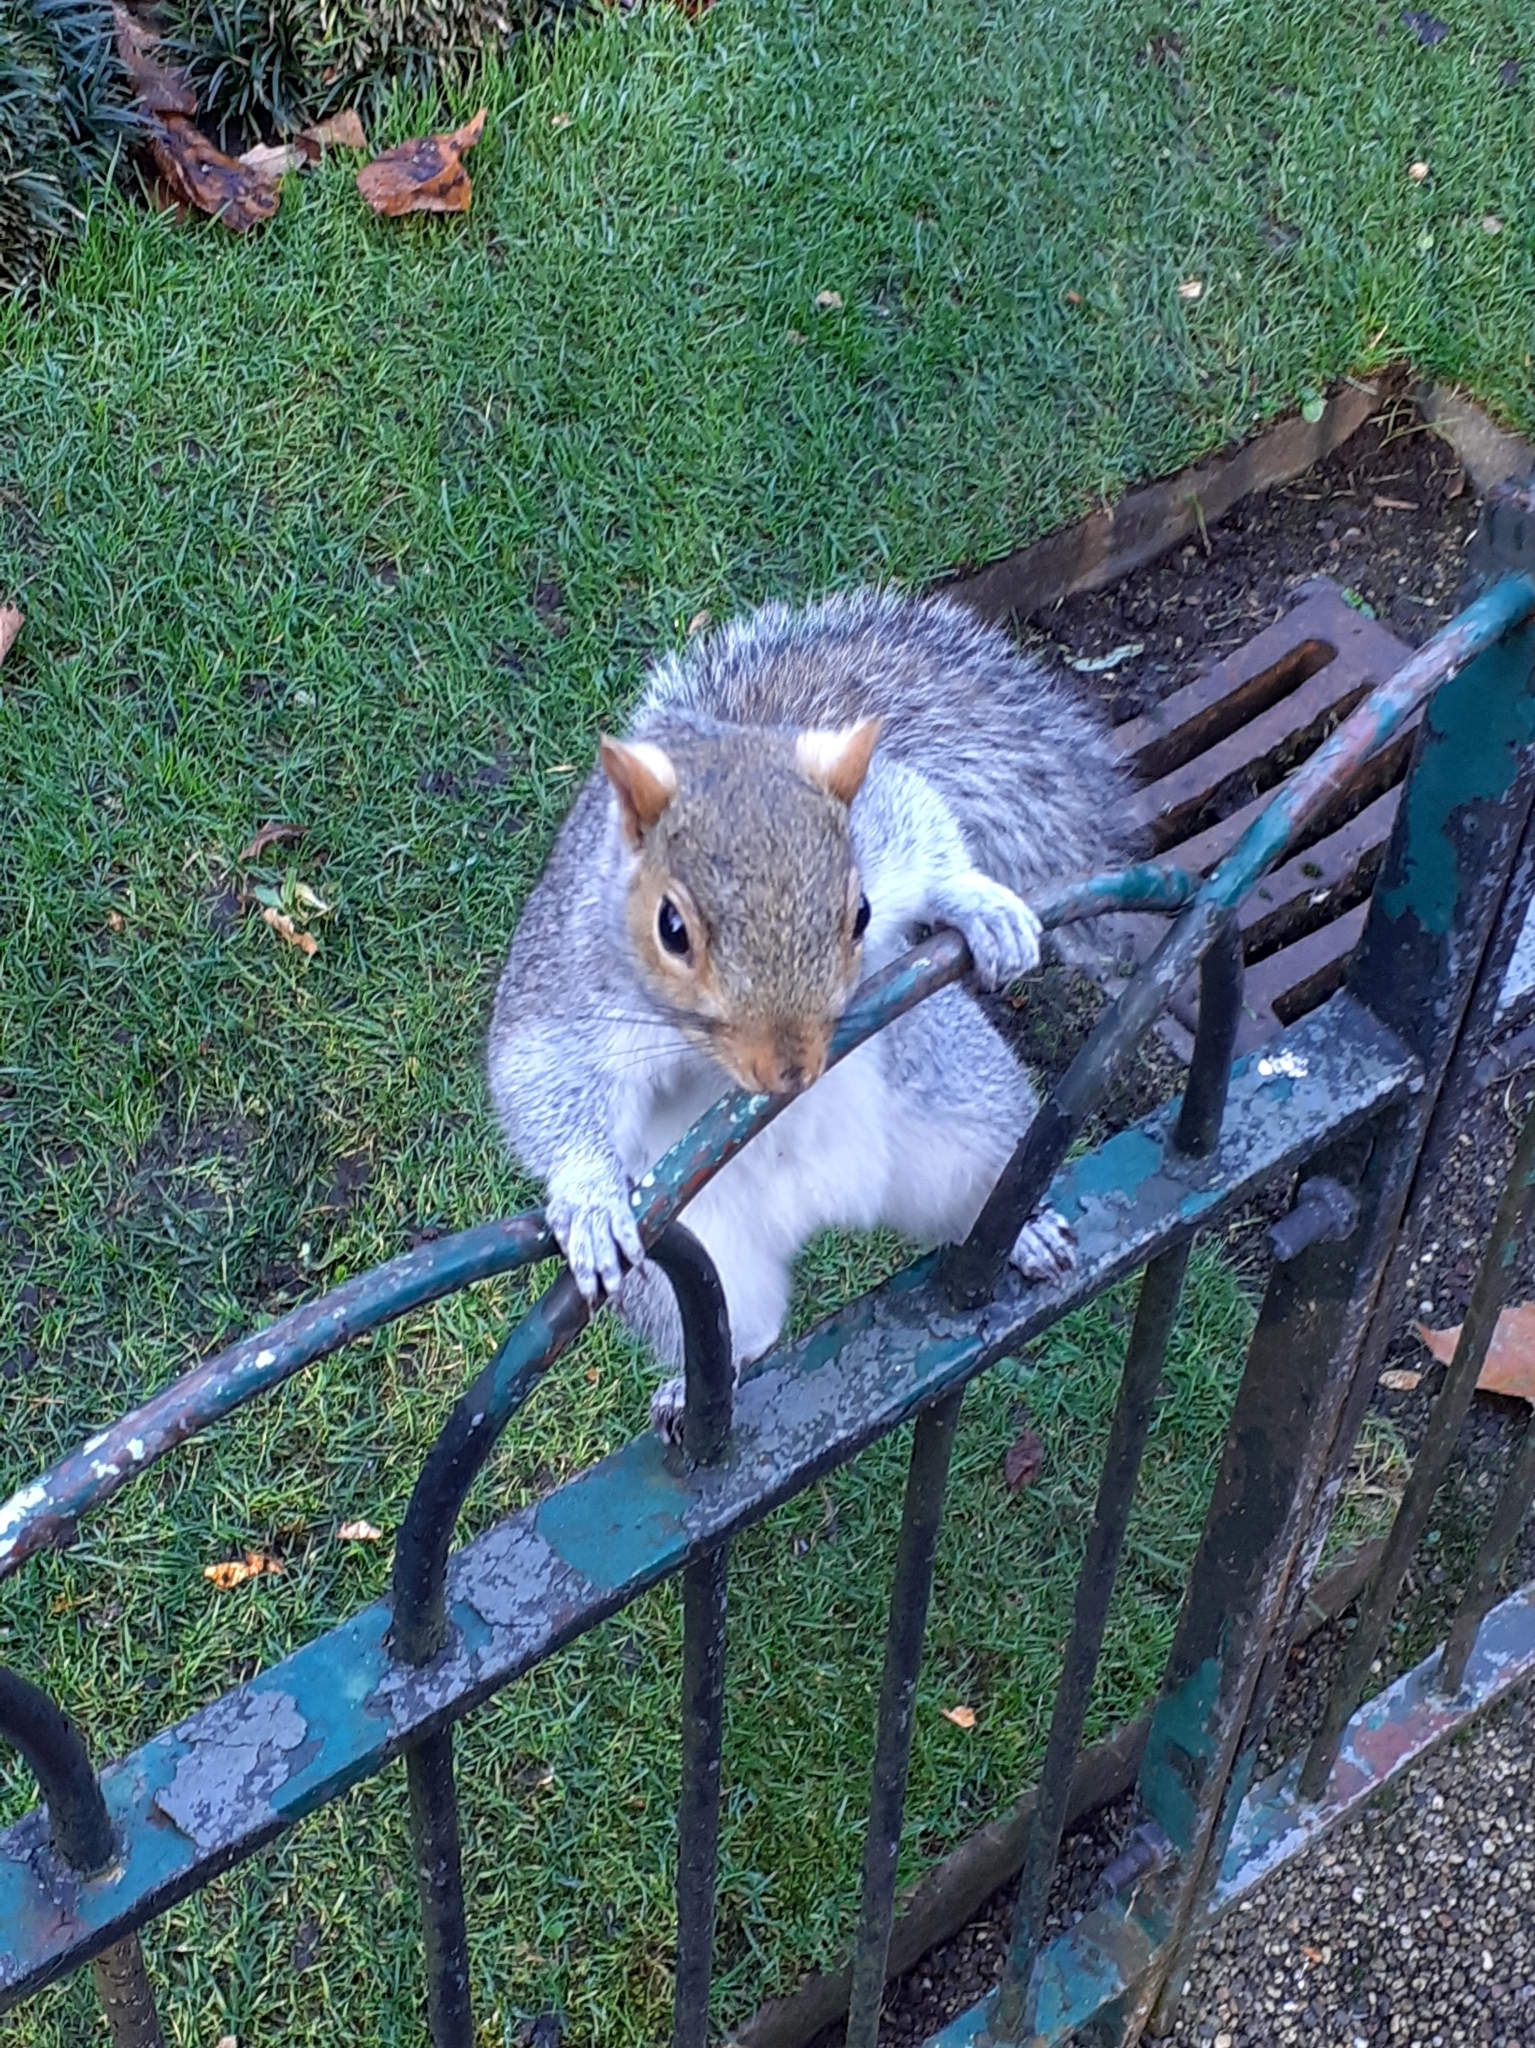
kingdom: Animalia
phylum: Chordata
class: Mammalia
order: Rodentia
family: Sciuridae
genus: Sciurus
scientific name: Sciurus carolinensis
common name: Eastern gray squirrel
